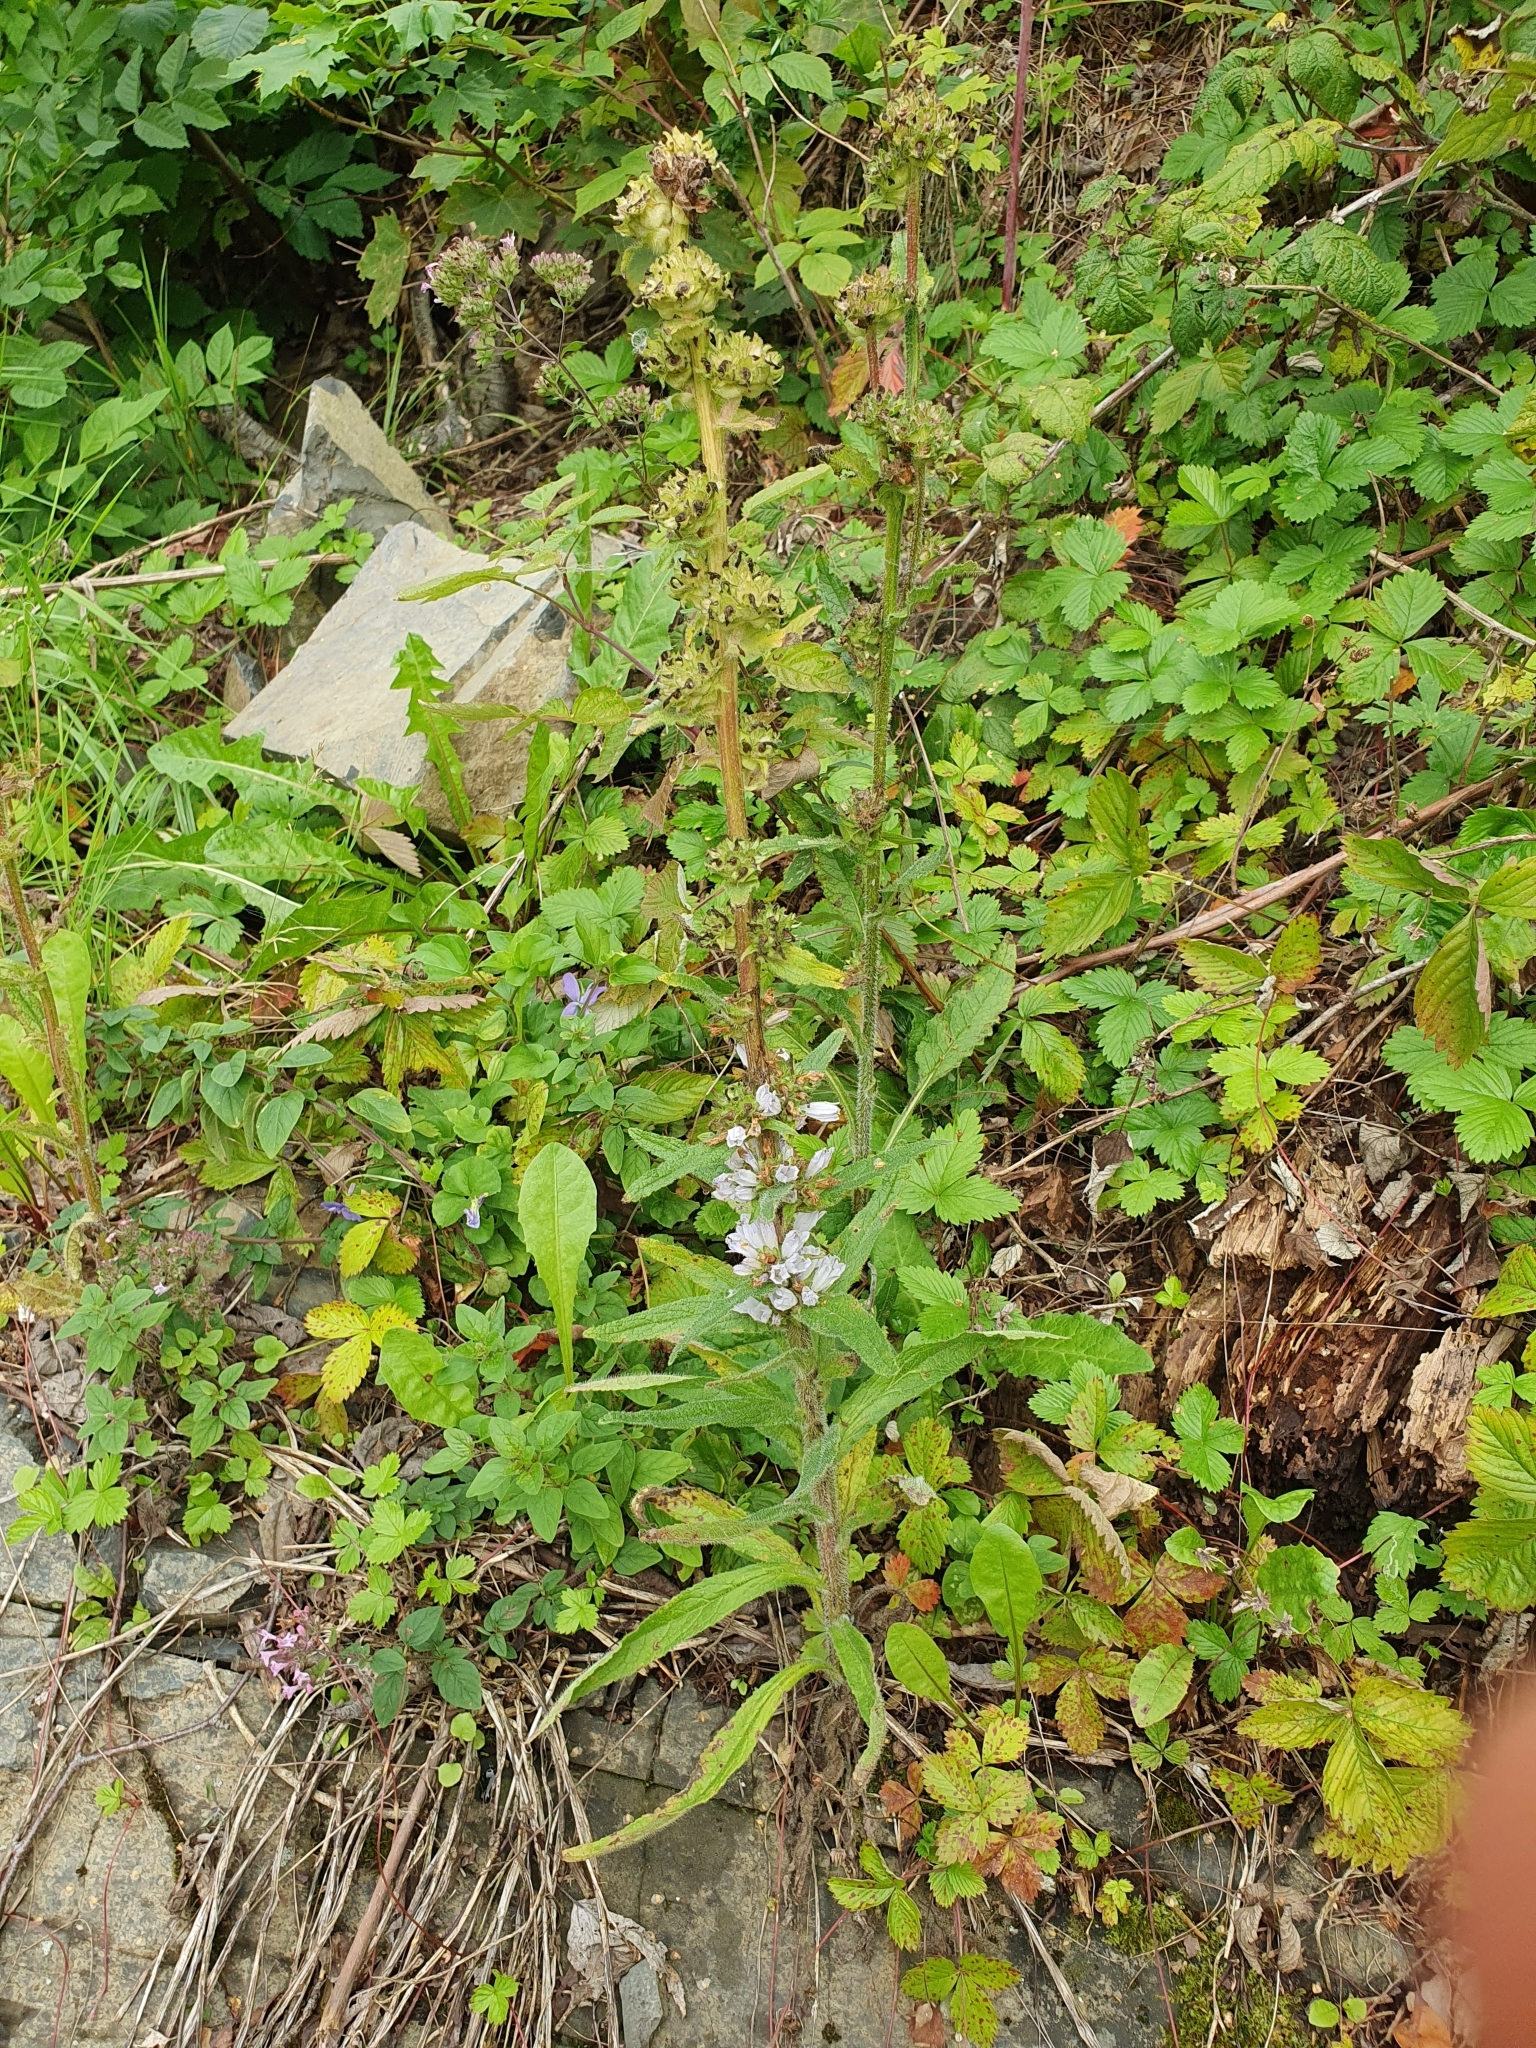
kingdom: Plantae
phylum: Tracheophyta
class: Magnoliopsida
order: Asterales
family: Campanulaceae
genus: Campanula
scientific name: Campanula cervicaria
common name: Bristly bellflower
